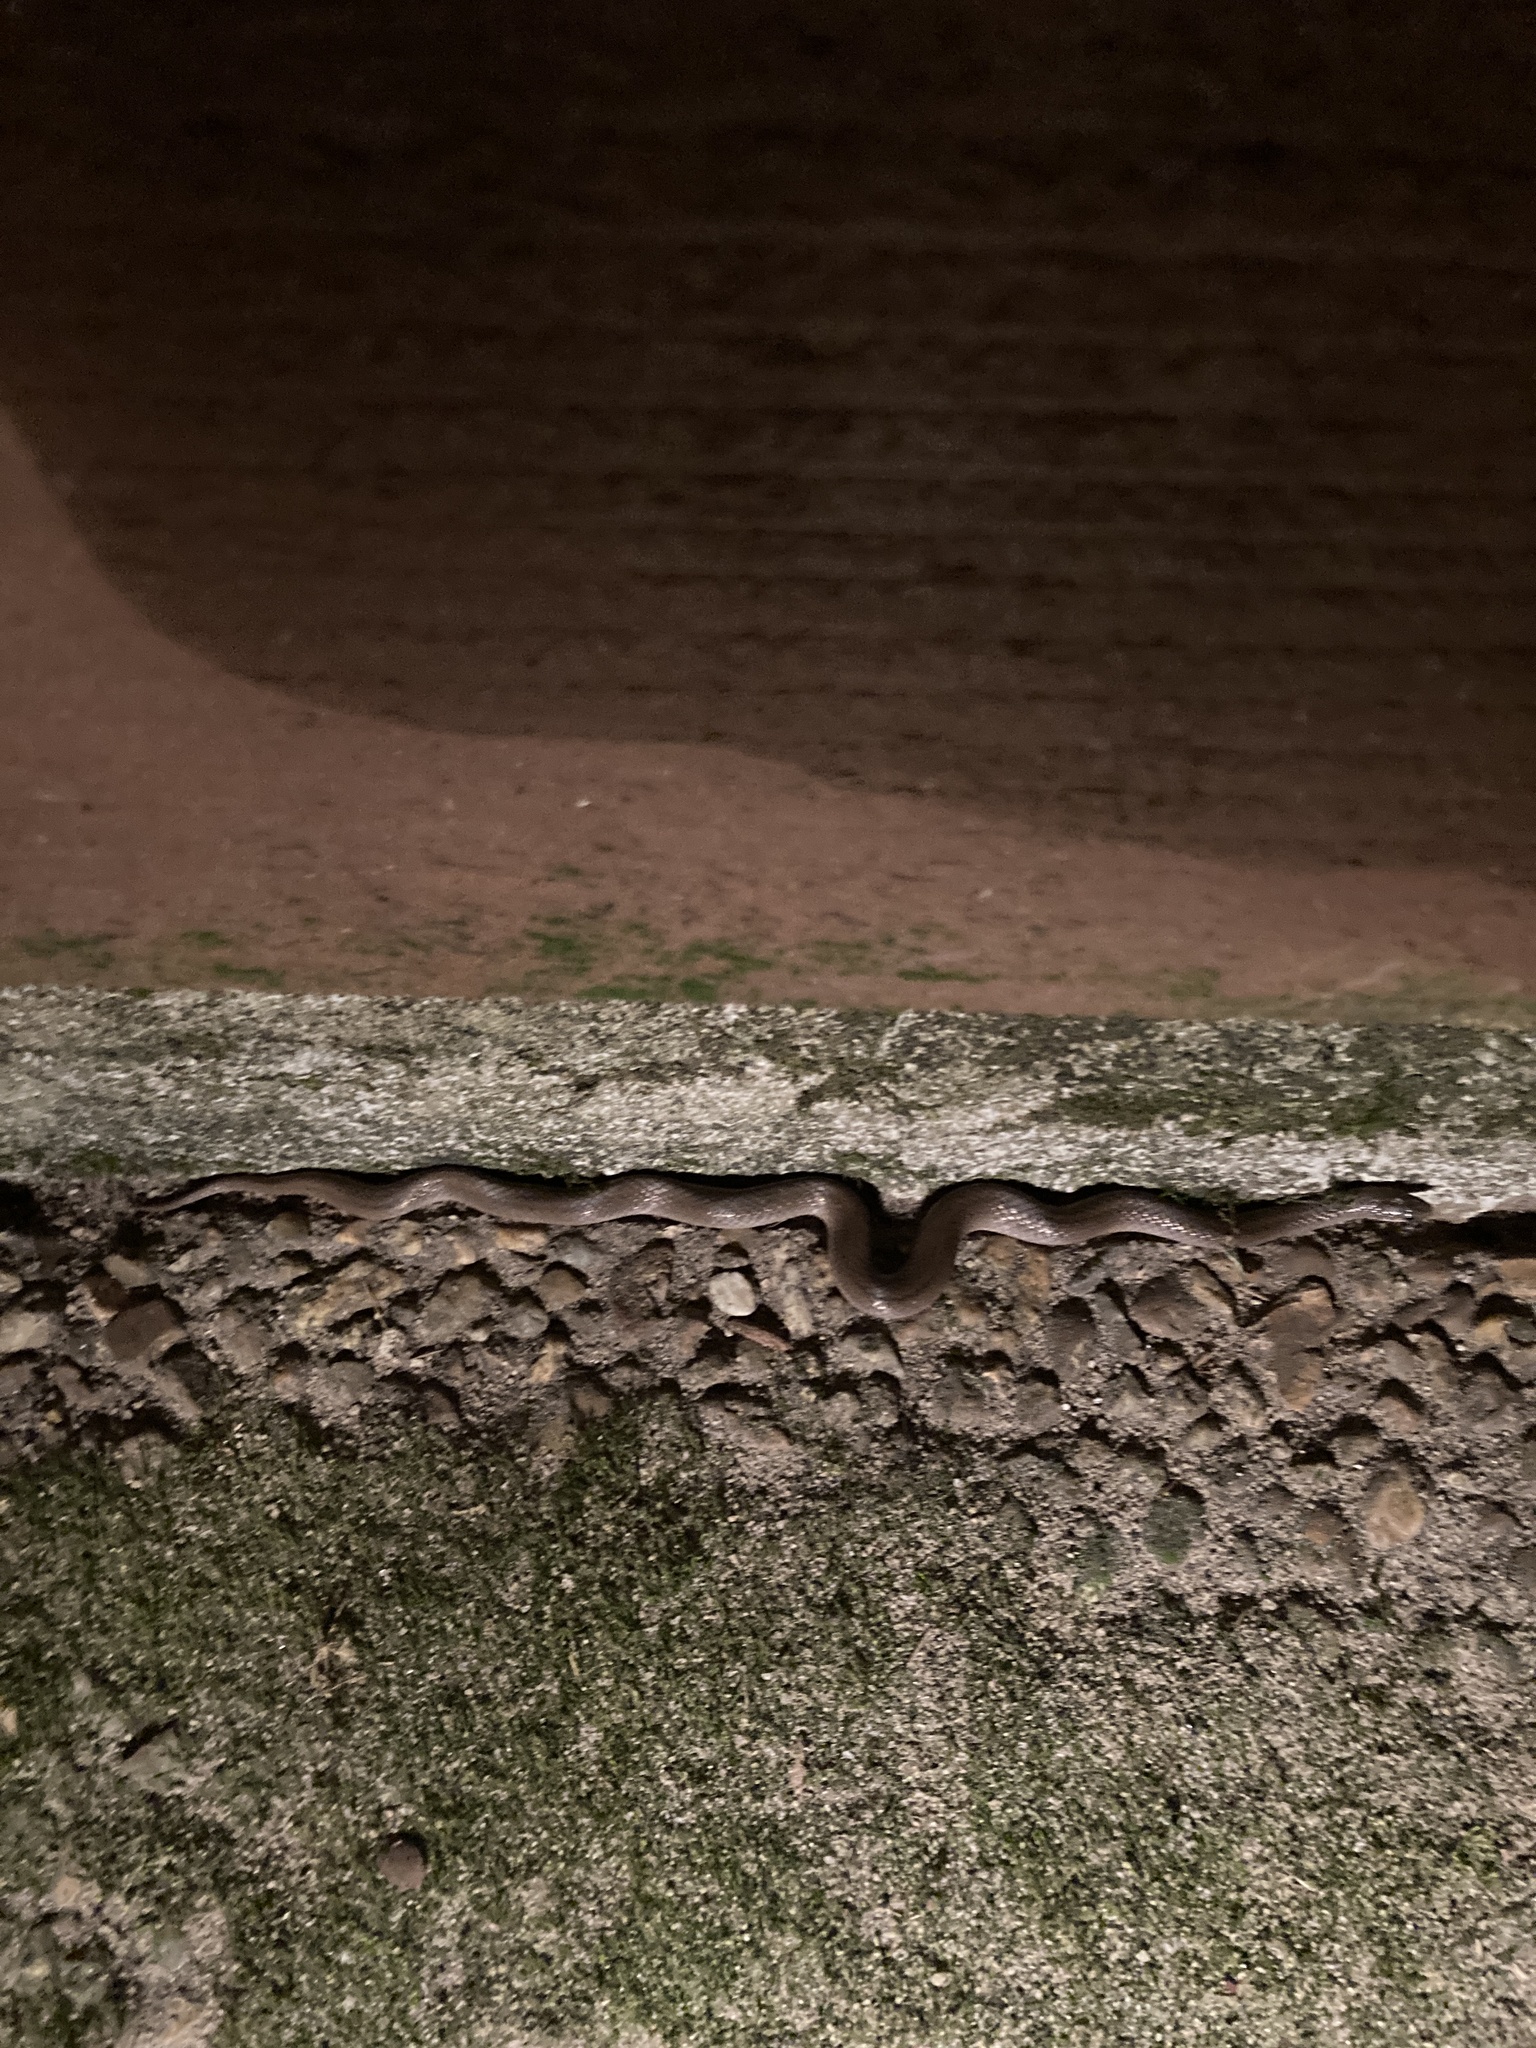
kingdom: Animalia
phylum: Chordata
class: Squamata
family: Colubridae
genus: Virginia
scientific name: Virginia valeriae
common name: Smooth earth snake
